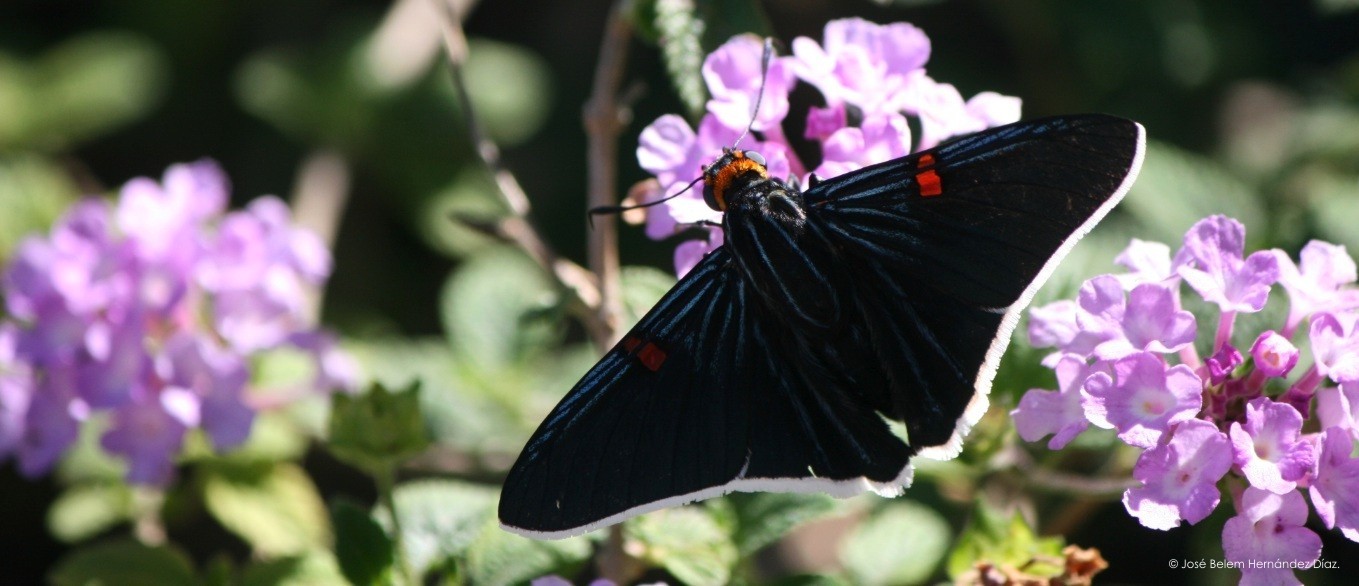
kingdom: Animalia
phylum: Arthropoda
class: Insecta
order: Lepidoptera
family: Hesperiidae
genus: Phocides
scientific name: Phocides lilea
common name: Guava skipper
